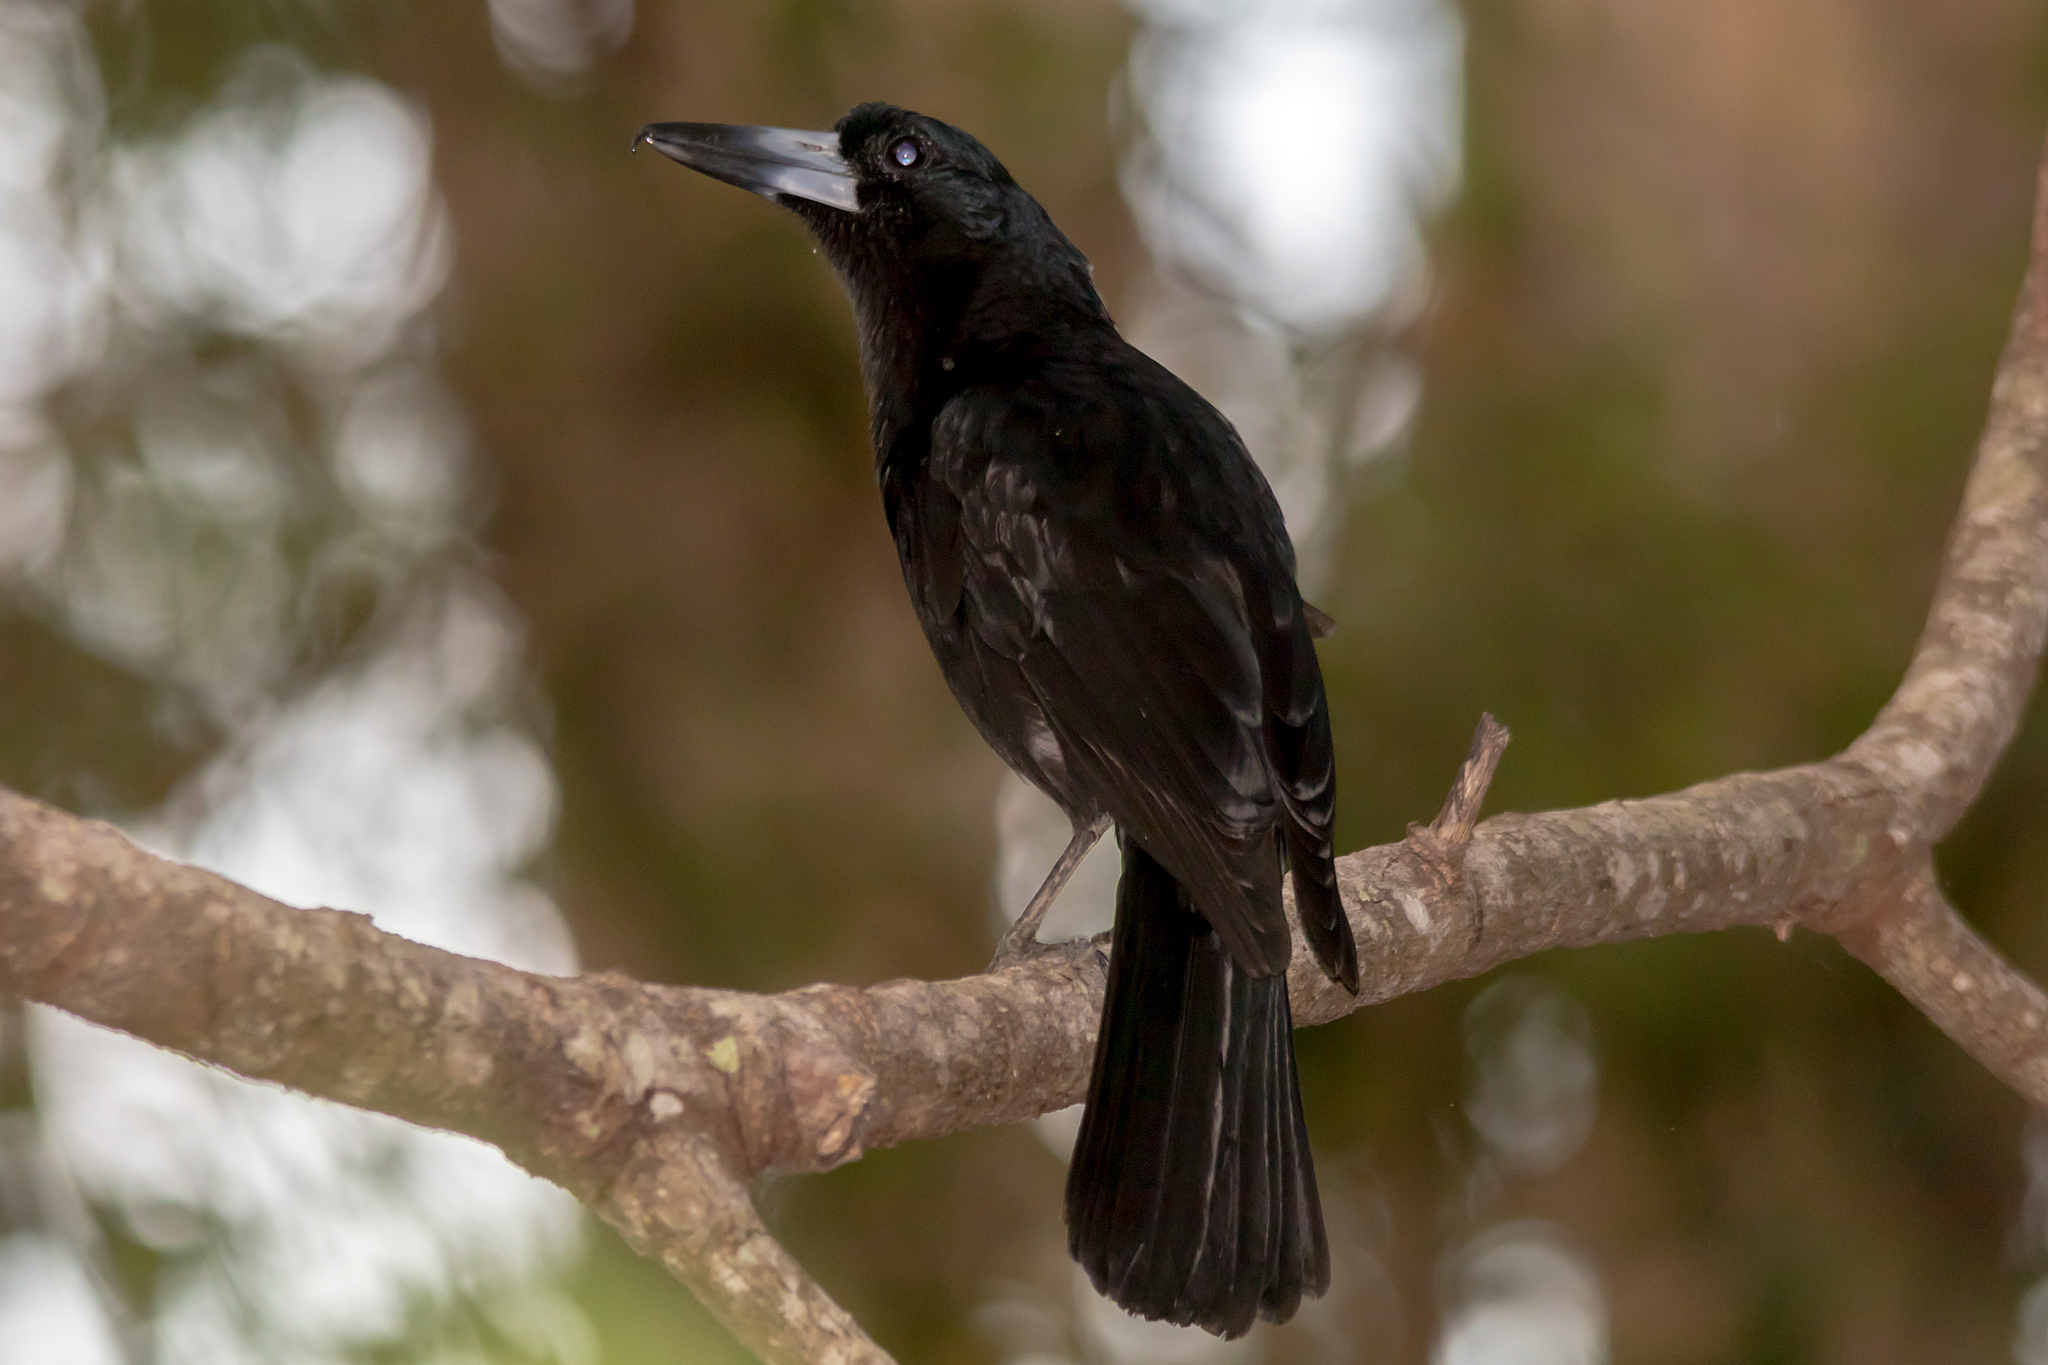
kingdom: Animalia
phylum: Chordata
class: Aves
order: Passeriformes
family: Artamidae
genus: Melloria
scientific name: Melloria quoyi
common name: Black butcherbird
